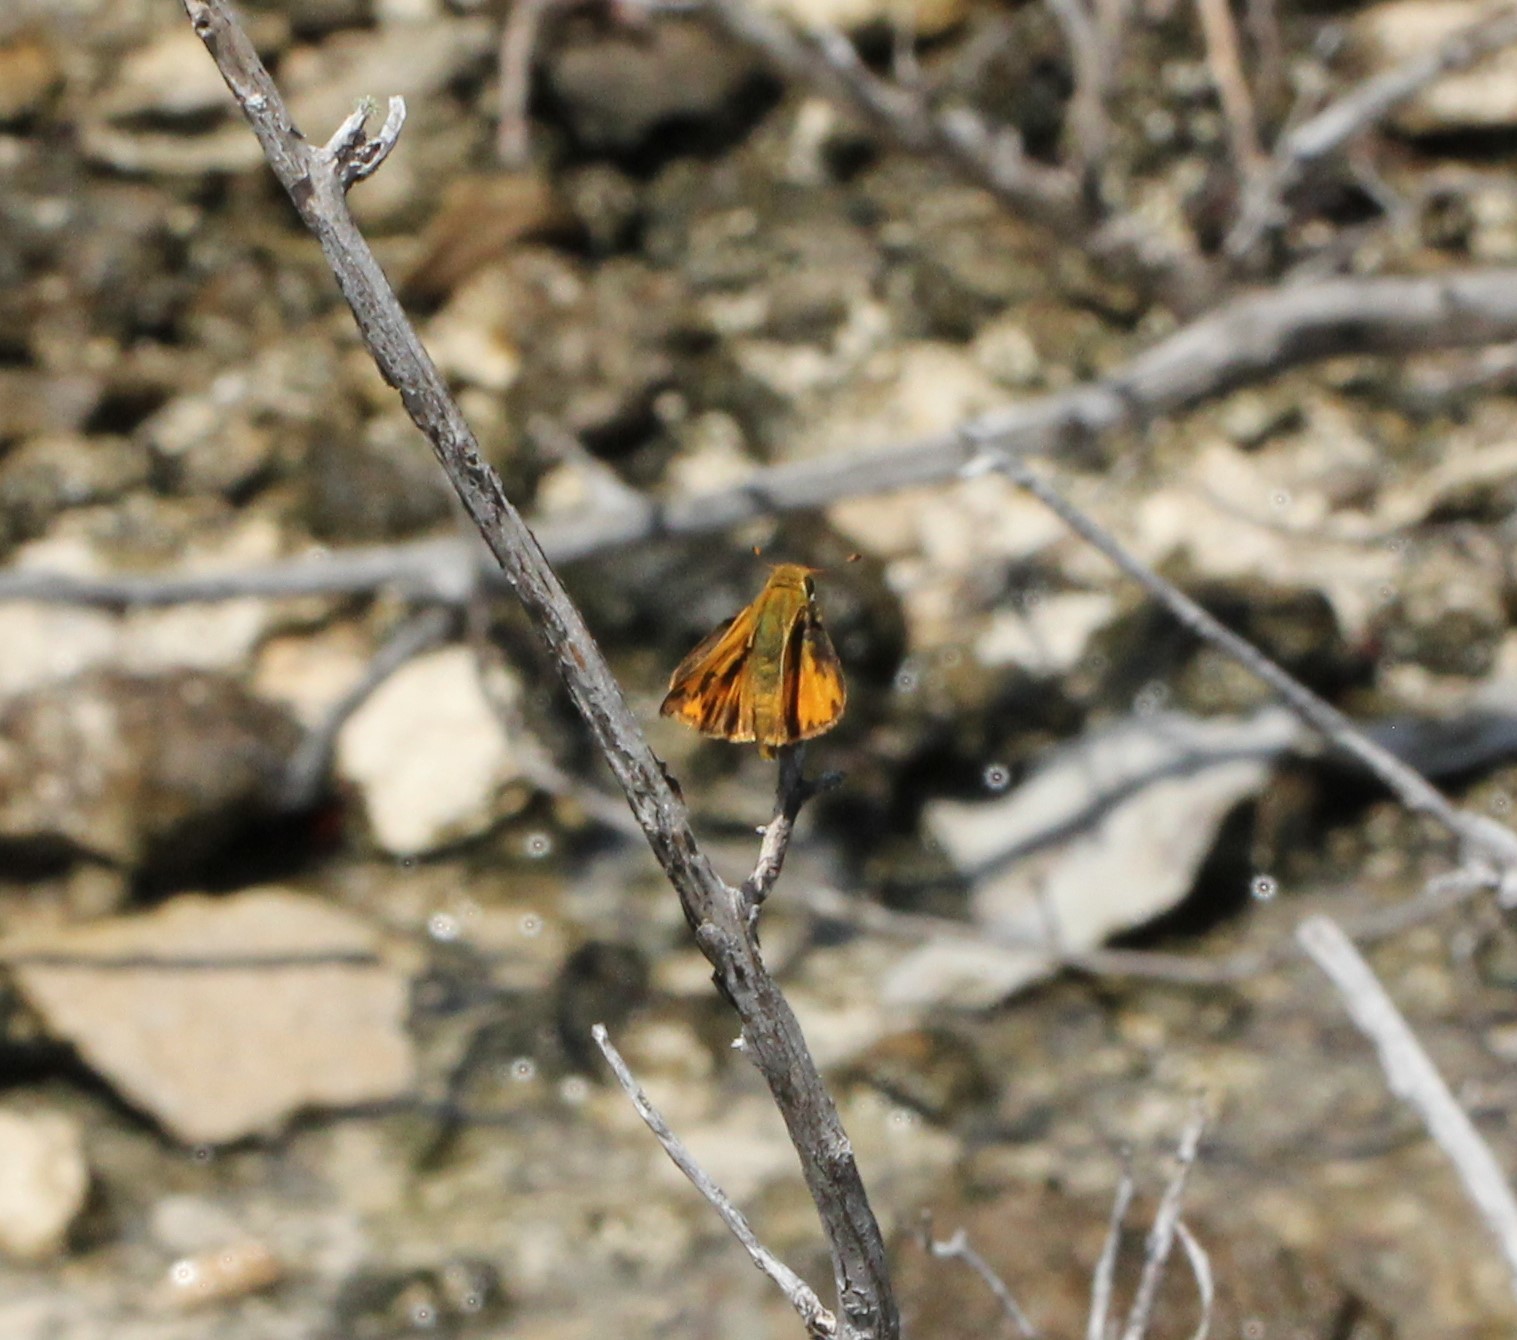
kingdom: Animalia
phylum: Arthropoda
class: Insecta
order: Lepidoptera
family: Hesperiidae
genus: Hylephila
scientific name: Hylephila phyleus
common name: Fiery skipper
